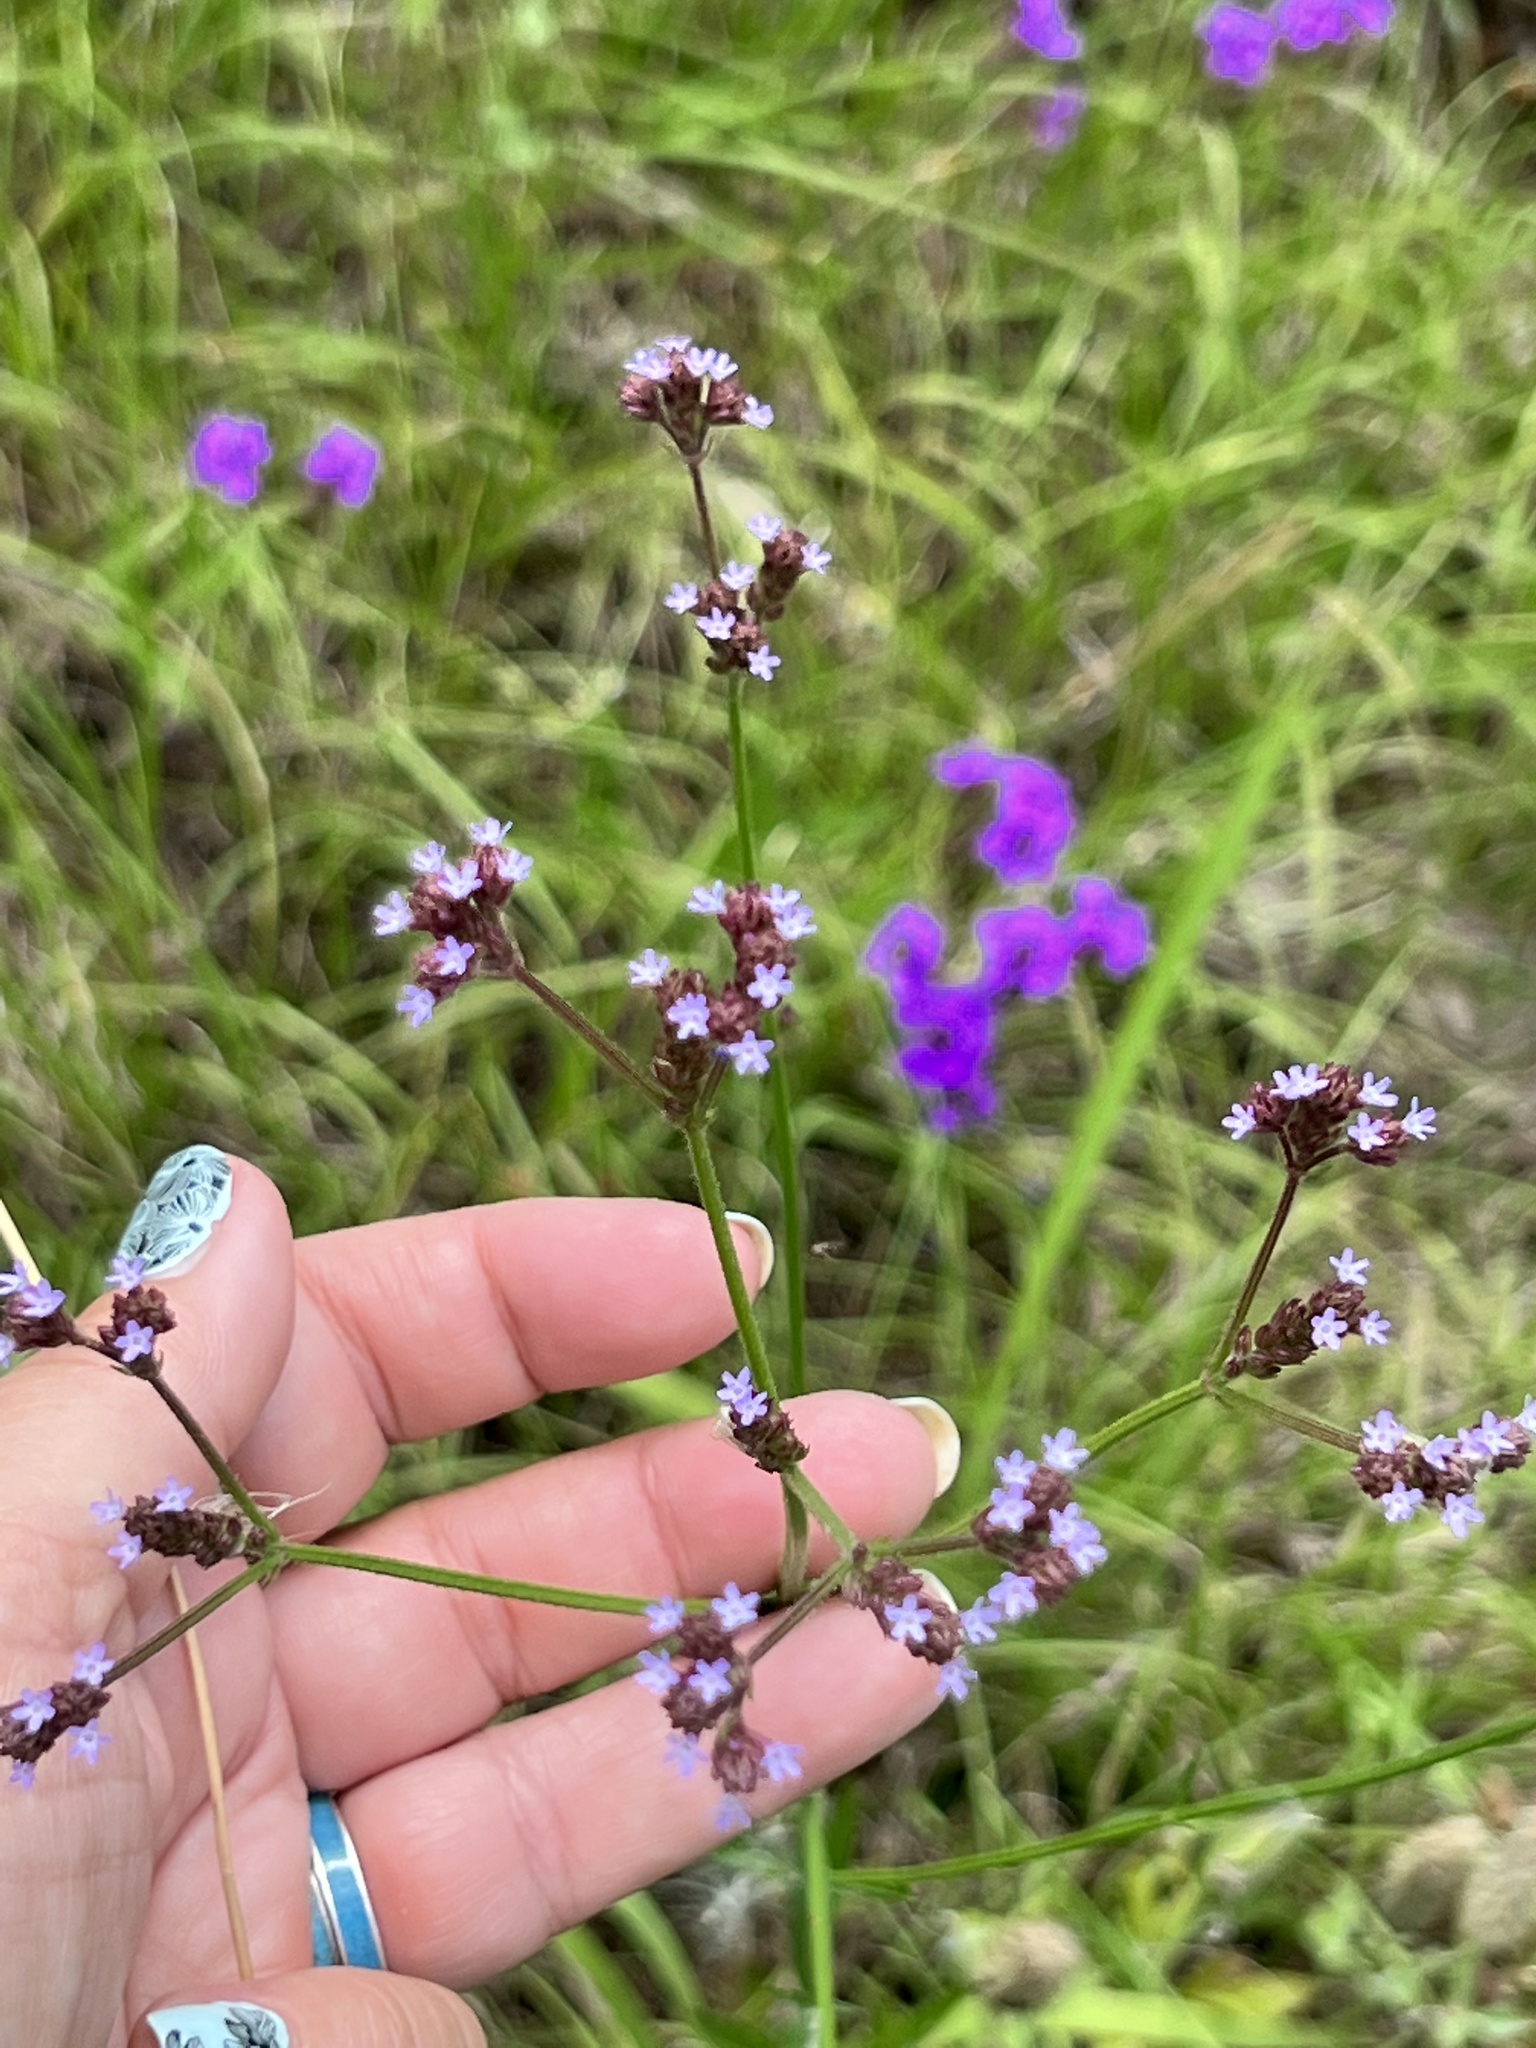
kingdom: Plantae
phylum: Tracheophyta
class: Magnoliopsida
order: Lamiales
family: Verbenaceae
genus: Verbena
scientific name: Verbena brasiliensis
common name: Brazilian vervain
